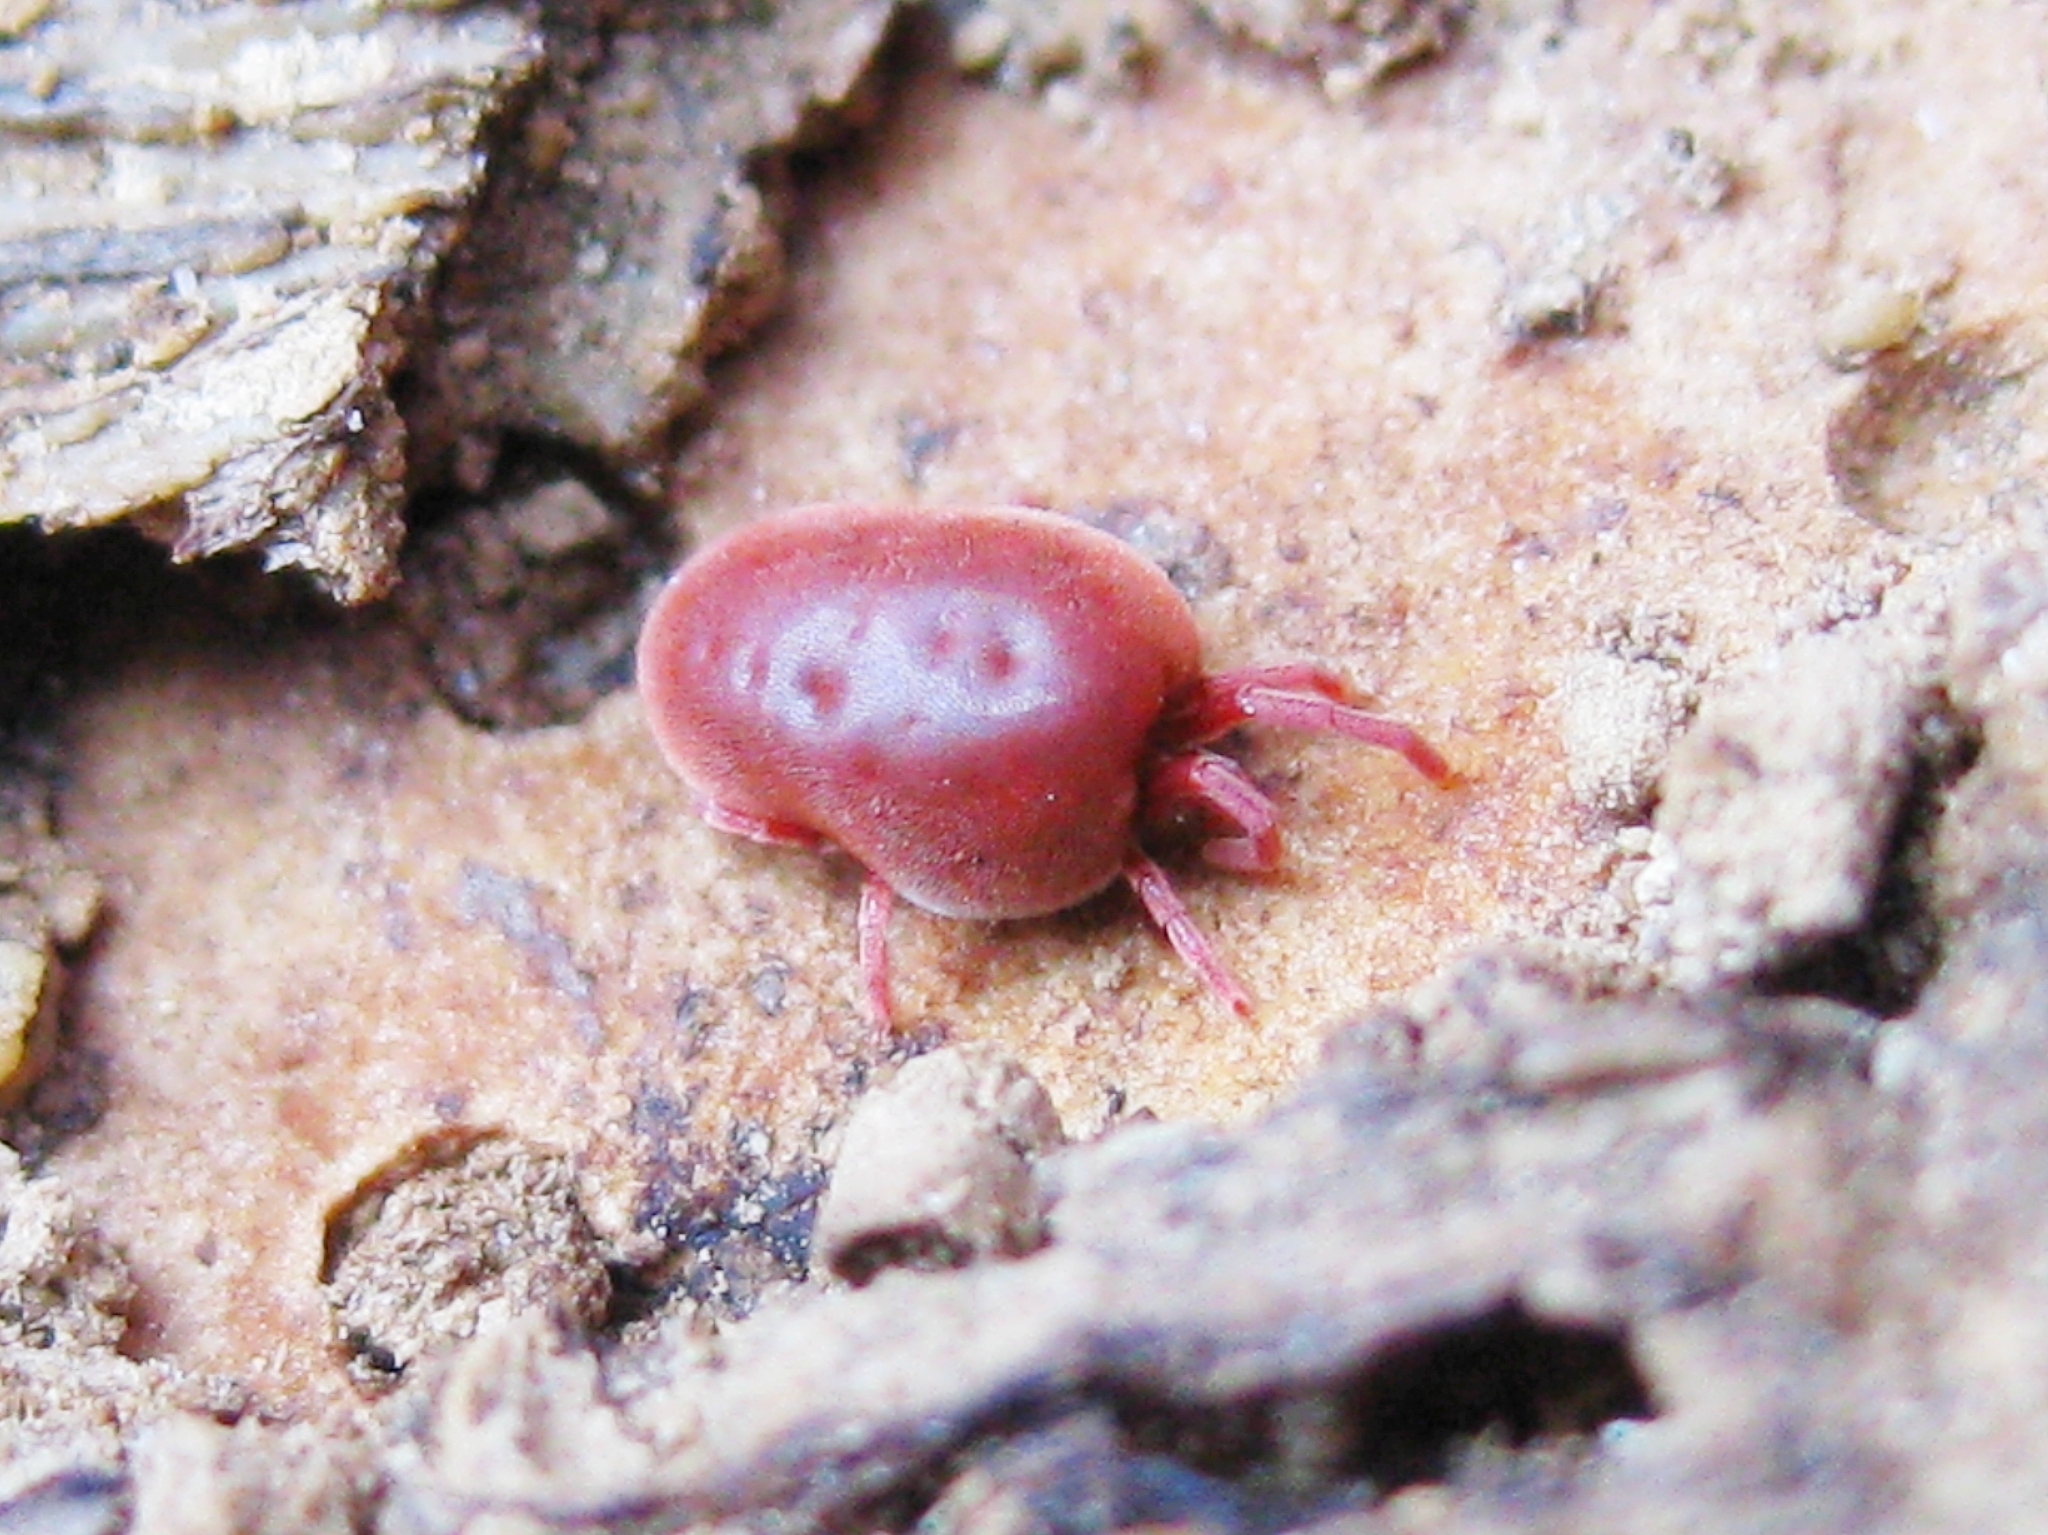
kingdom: Animalia
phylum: Arthropoda
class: Arachnida
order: Trombidiformes
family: Trombidiidae
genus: Allothrombium
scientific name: Allothrombium
